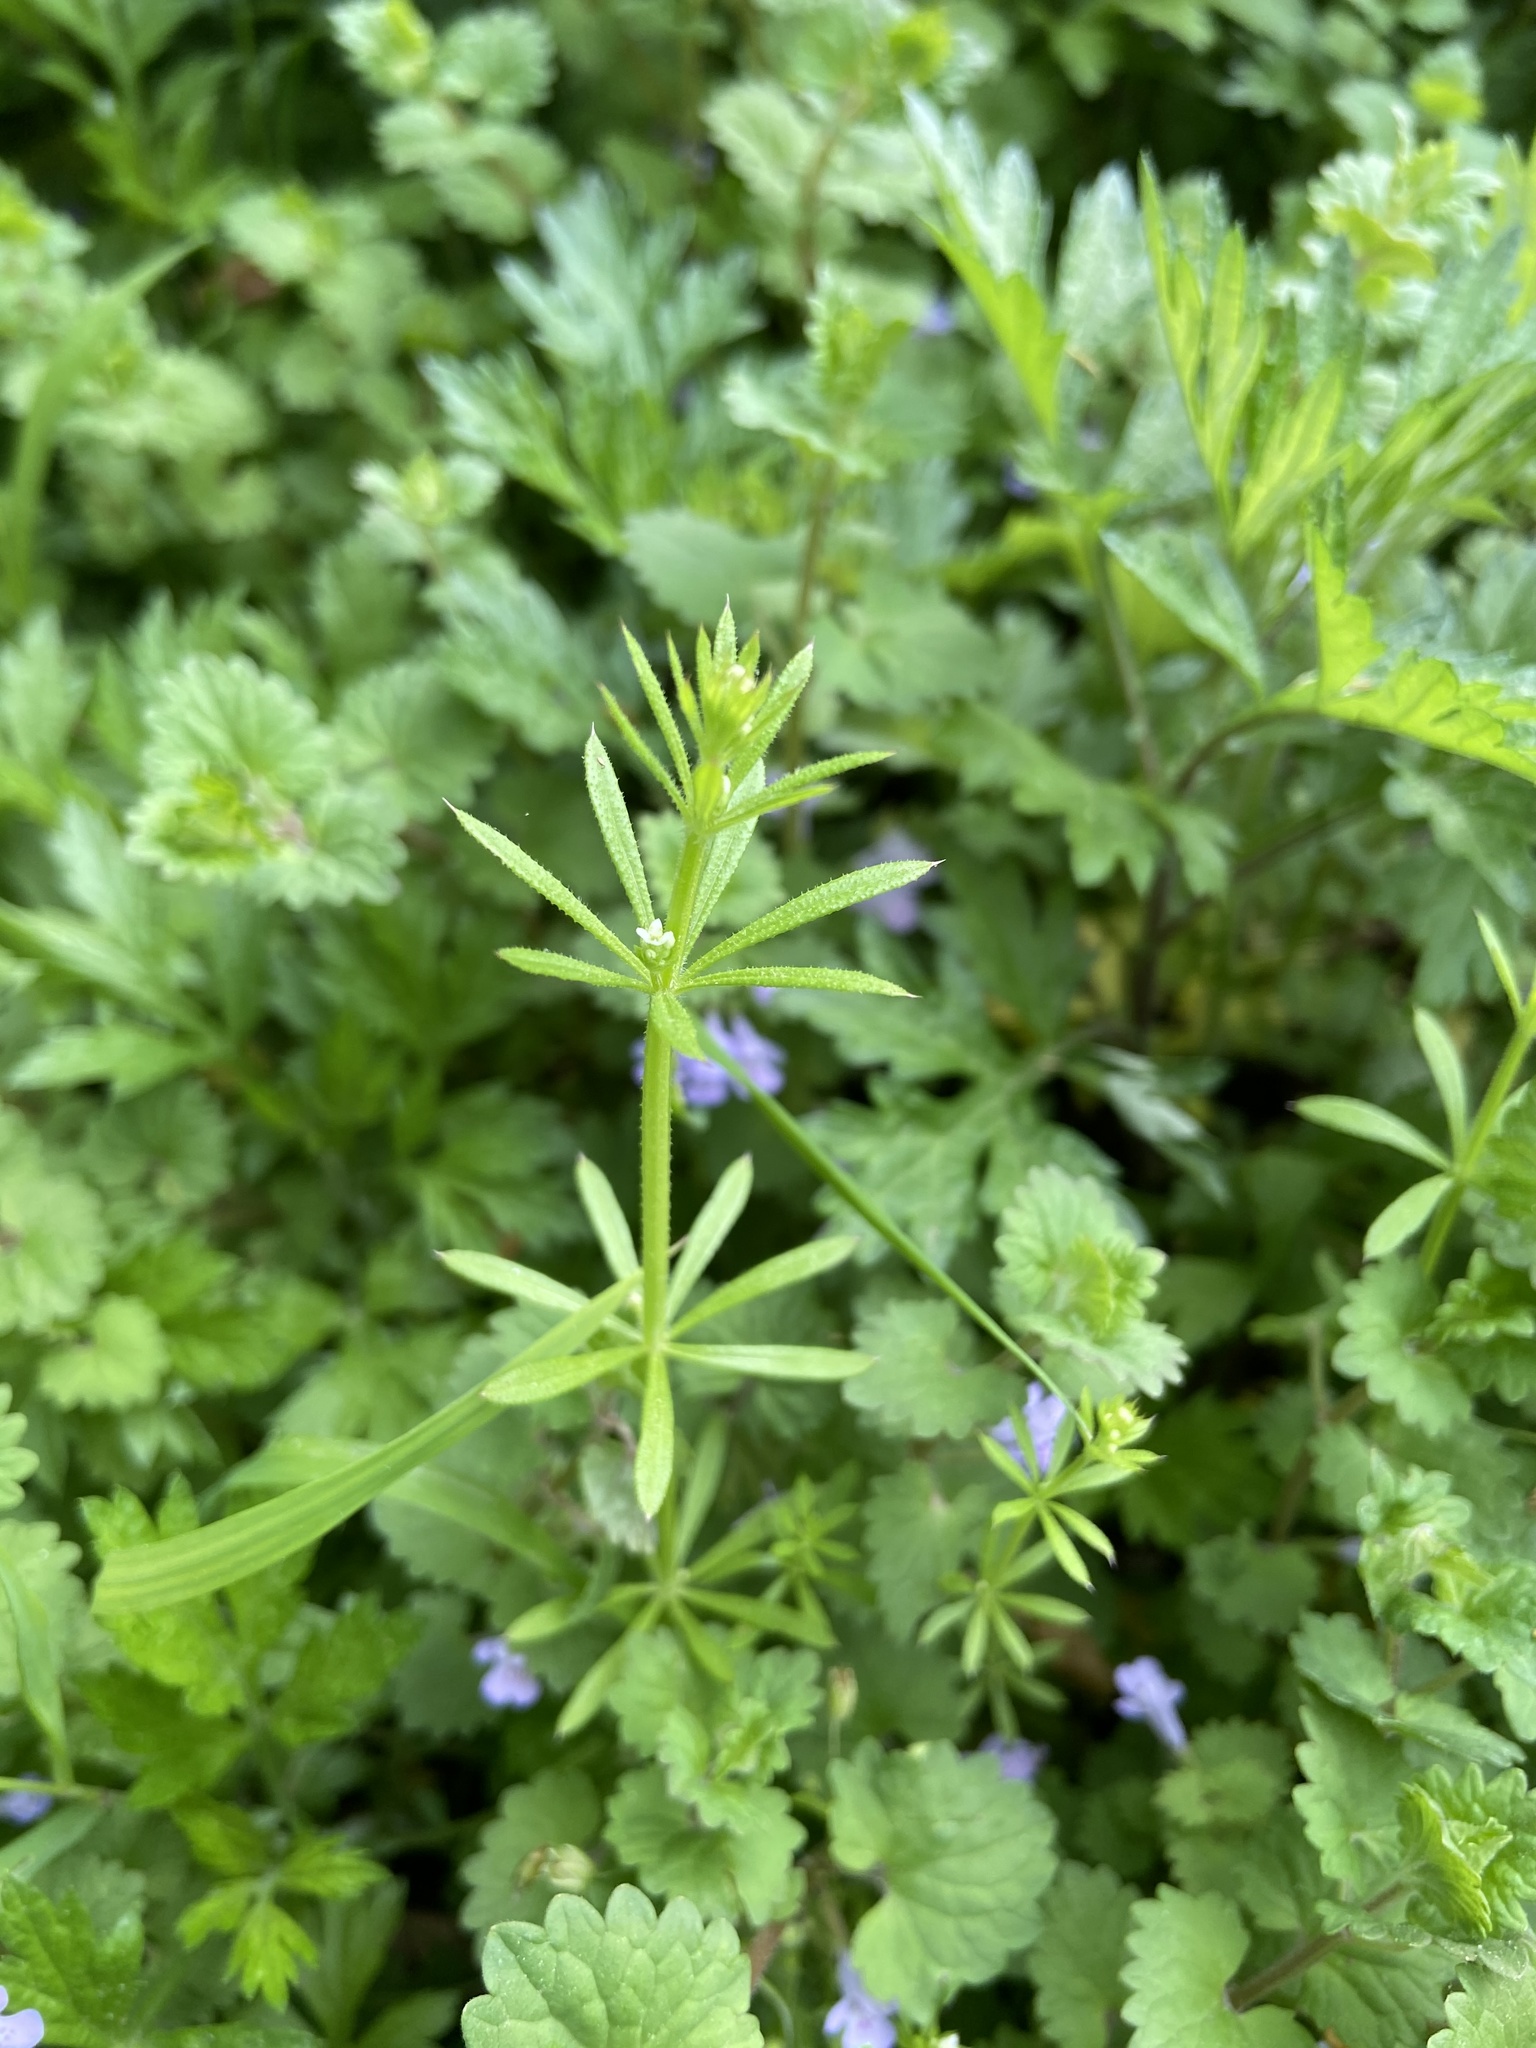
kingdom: Plantae
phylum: Tracheophyta
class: Magnoliopsida
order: Gentianales
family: Rubiaceae
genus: Galium
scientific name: Galium aparine
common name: Cleavers
